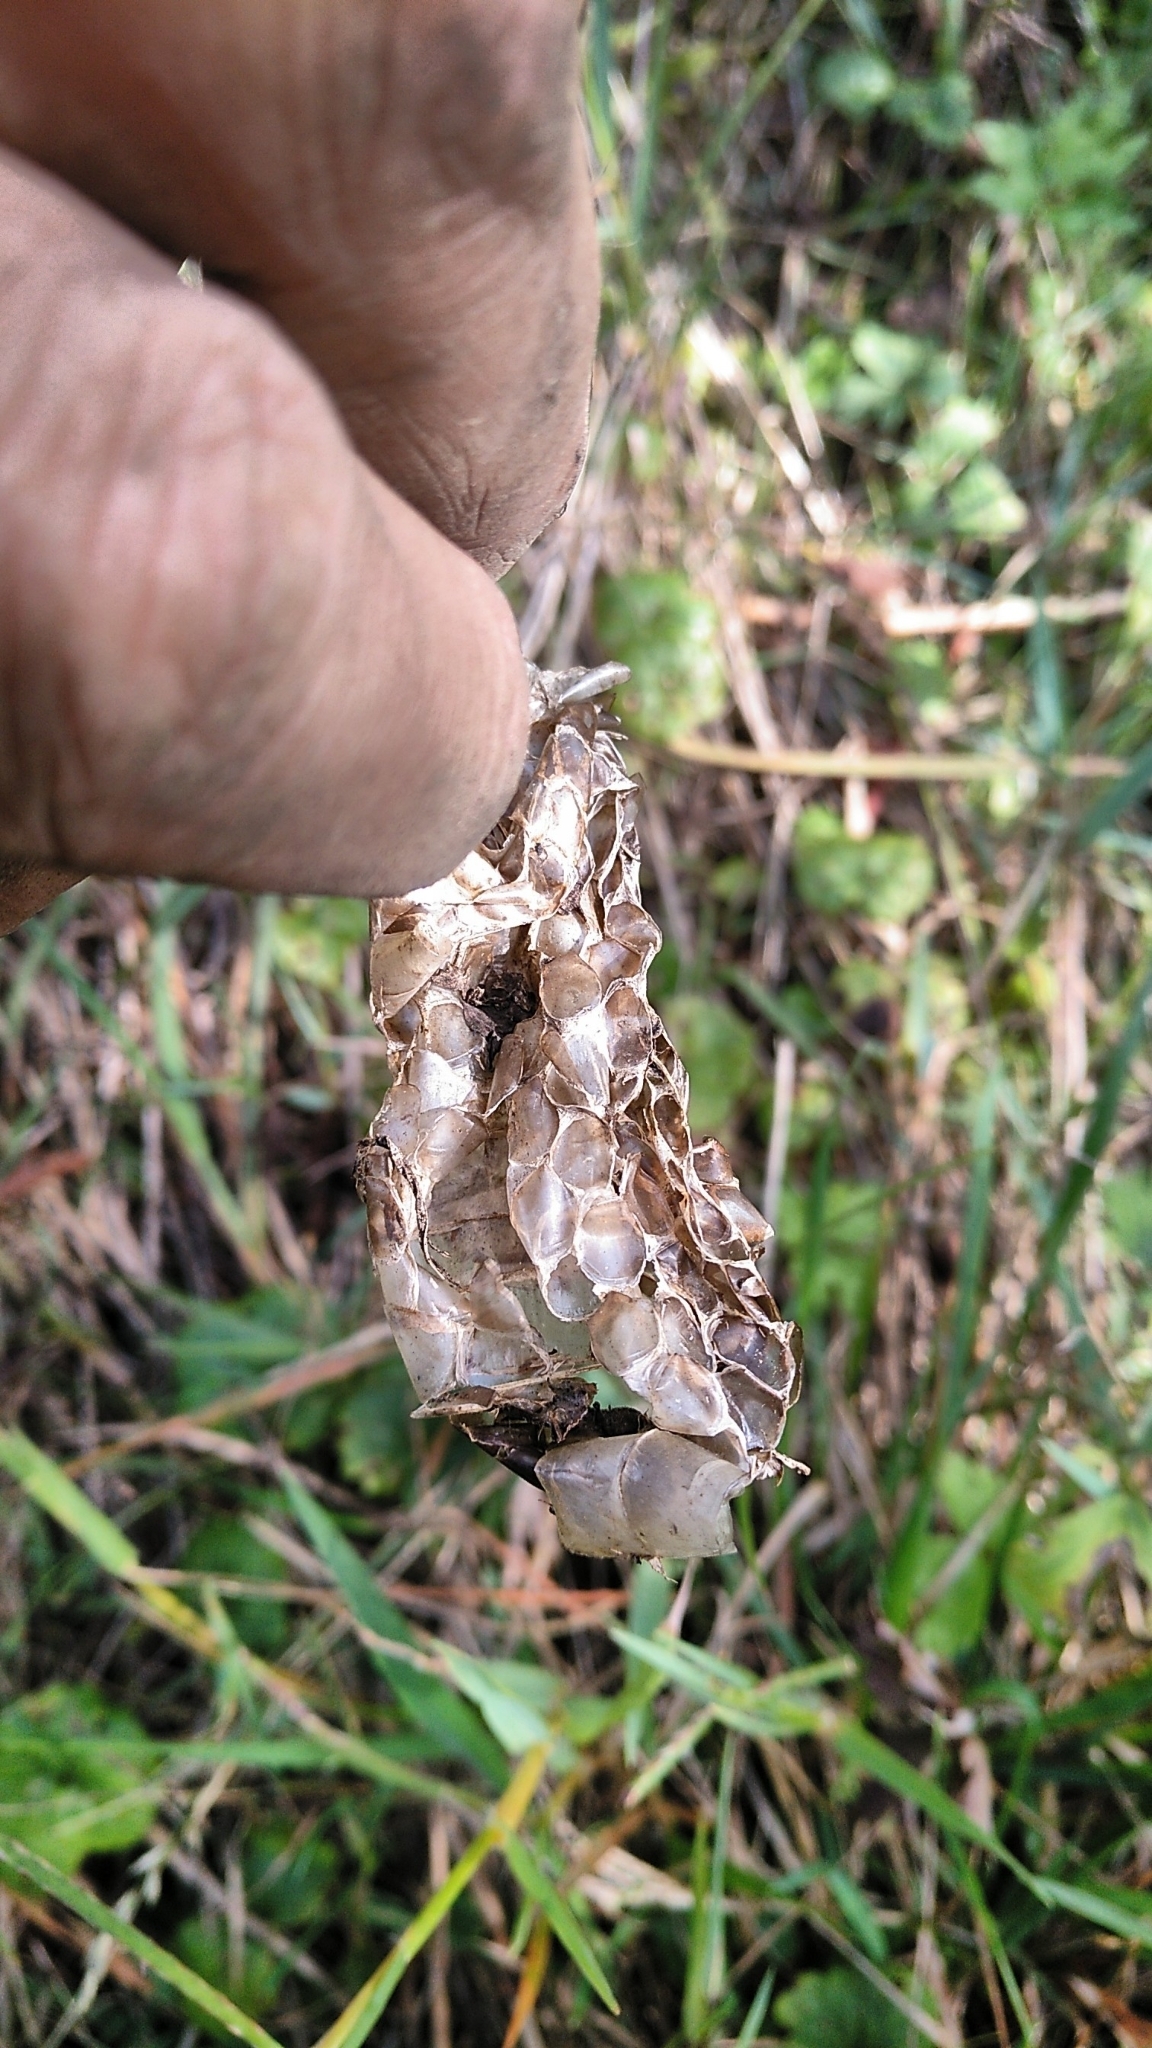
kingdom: Animalia
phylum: Chordata
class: Squamata
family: Colubridae
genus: Hierophis
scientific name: Hierophis viridiflavus
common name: Green whip snake
